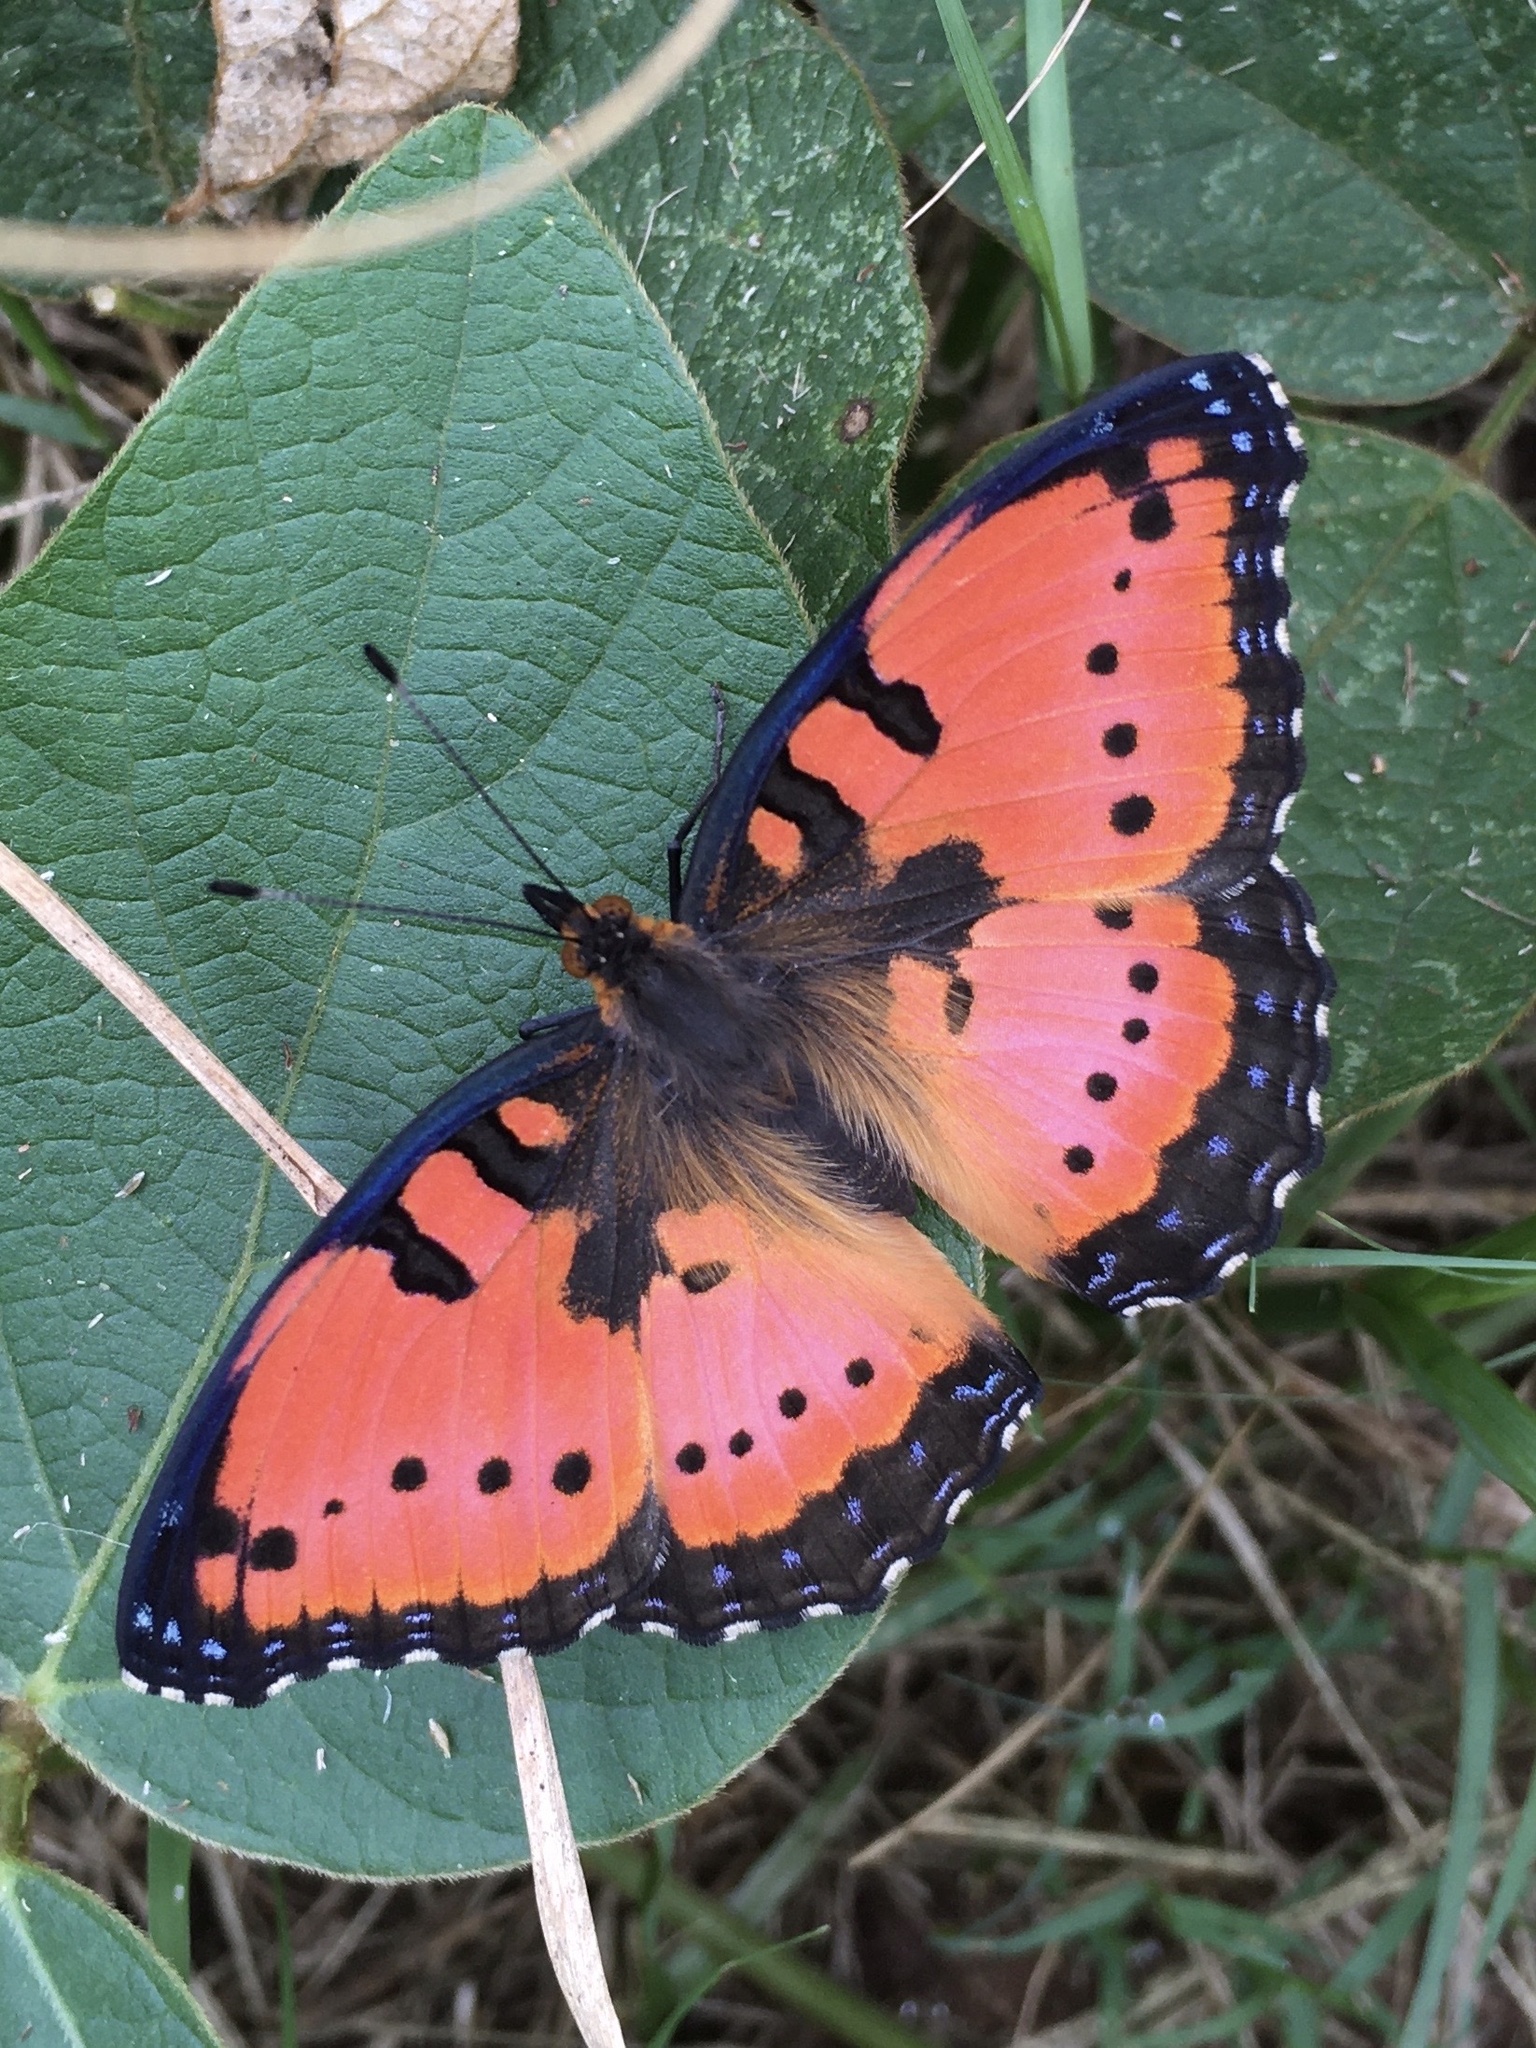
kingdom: Animalia
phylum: Arthropoda
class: Insecta
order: Lepidoptera
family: Nymphalidae
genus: Precis
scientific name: Precis octavia
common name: Gaudy commodore
